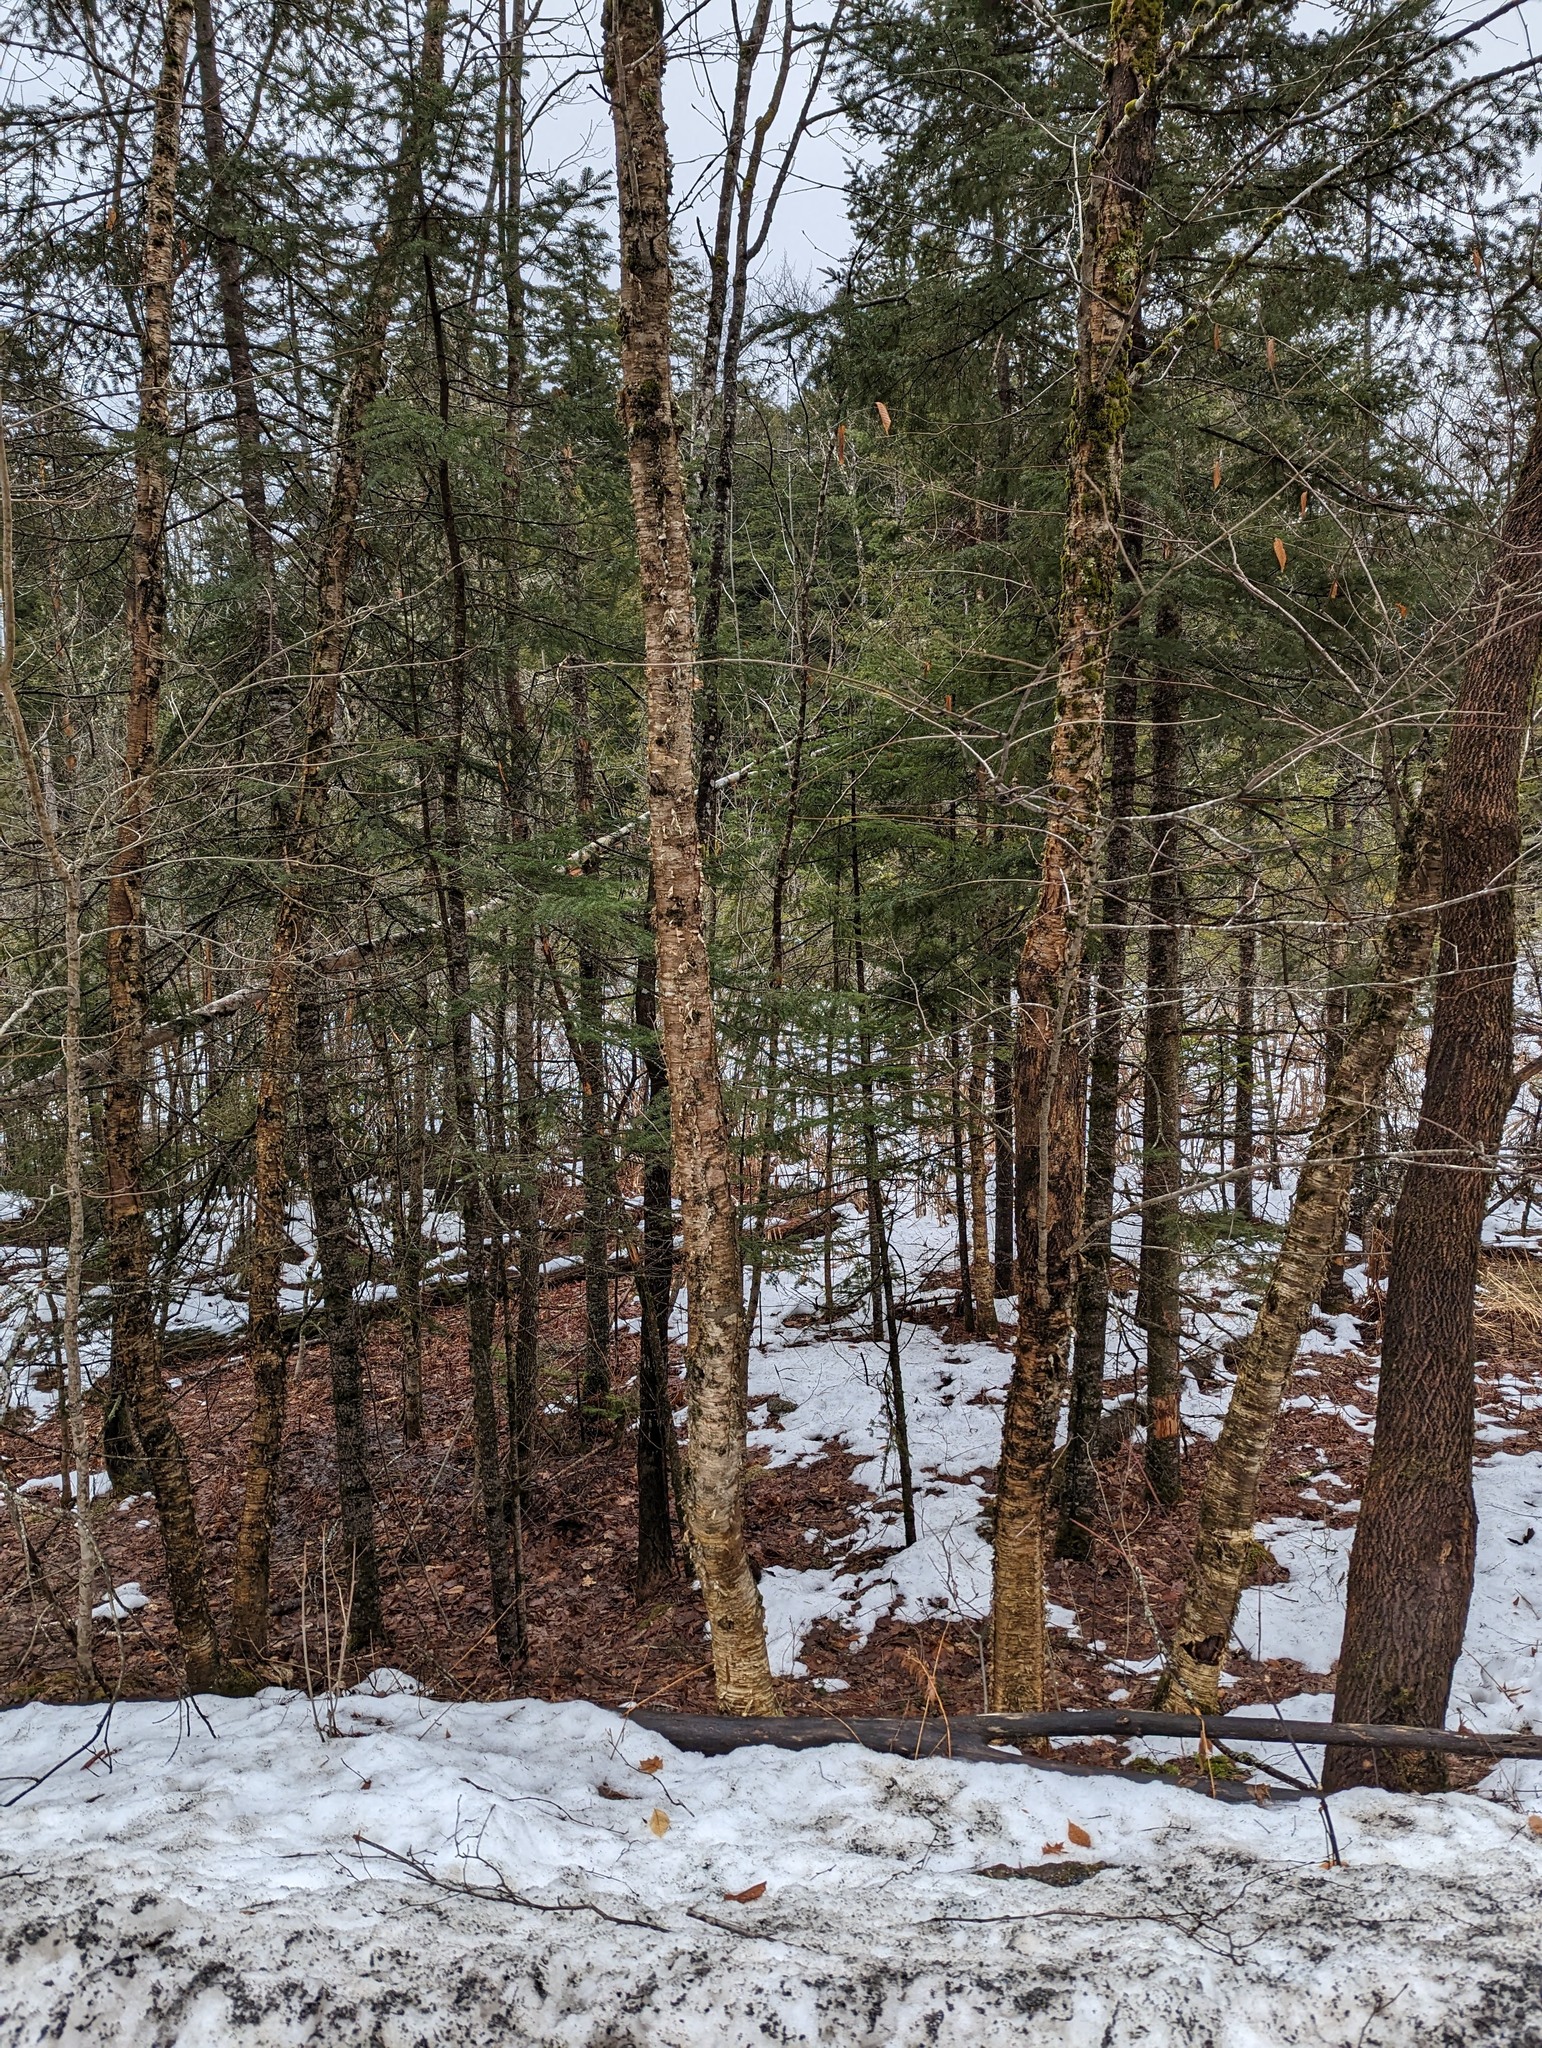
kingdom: Plantae
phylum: Tracheophyta
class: Magnoliopsida
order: Fagales
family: Betulaceae
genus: Betula
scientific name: Betula alleghaniensis
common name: Yellow birch
